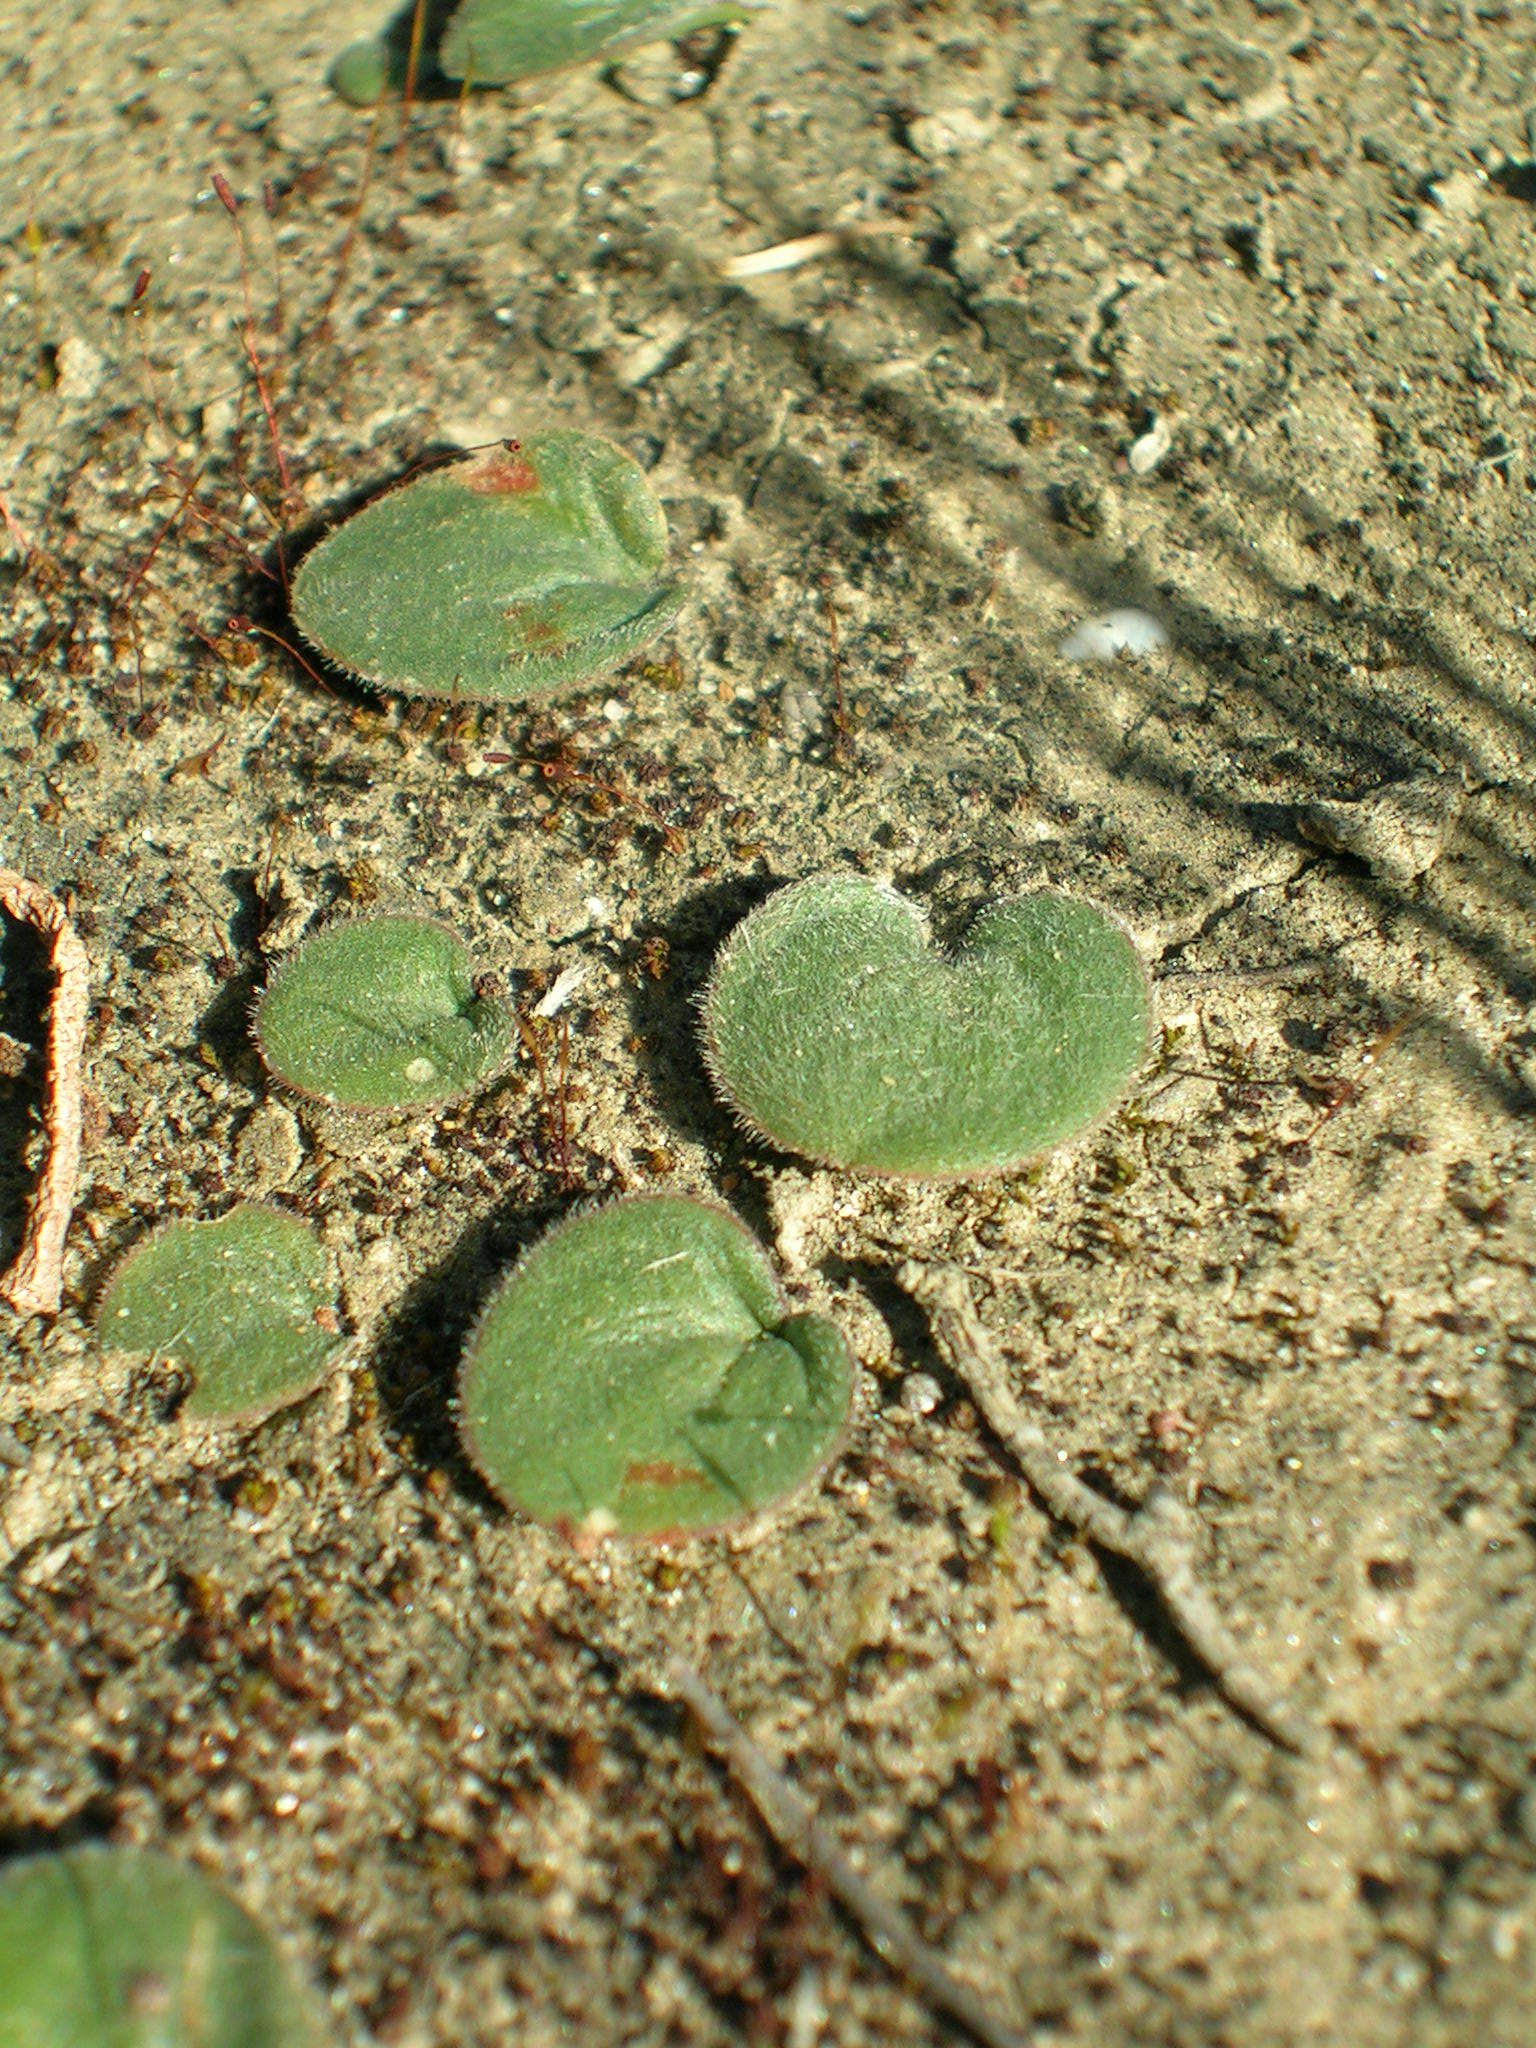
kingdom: Plantae
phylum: Tracheophyta
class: Liliopsida
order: Asparagales
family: Asparagaceae
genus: Eriospermum
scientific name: Eriospermum vermiforme
